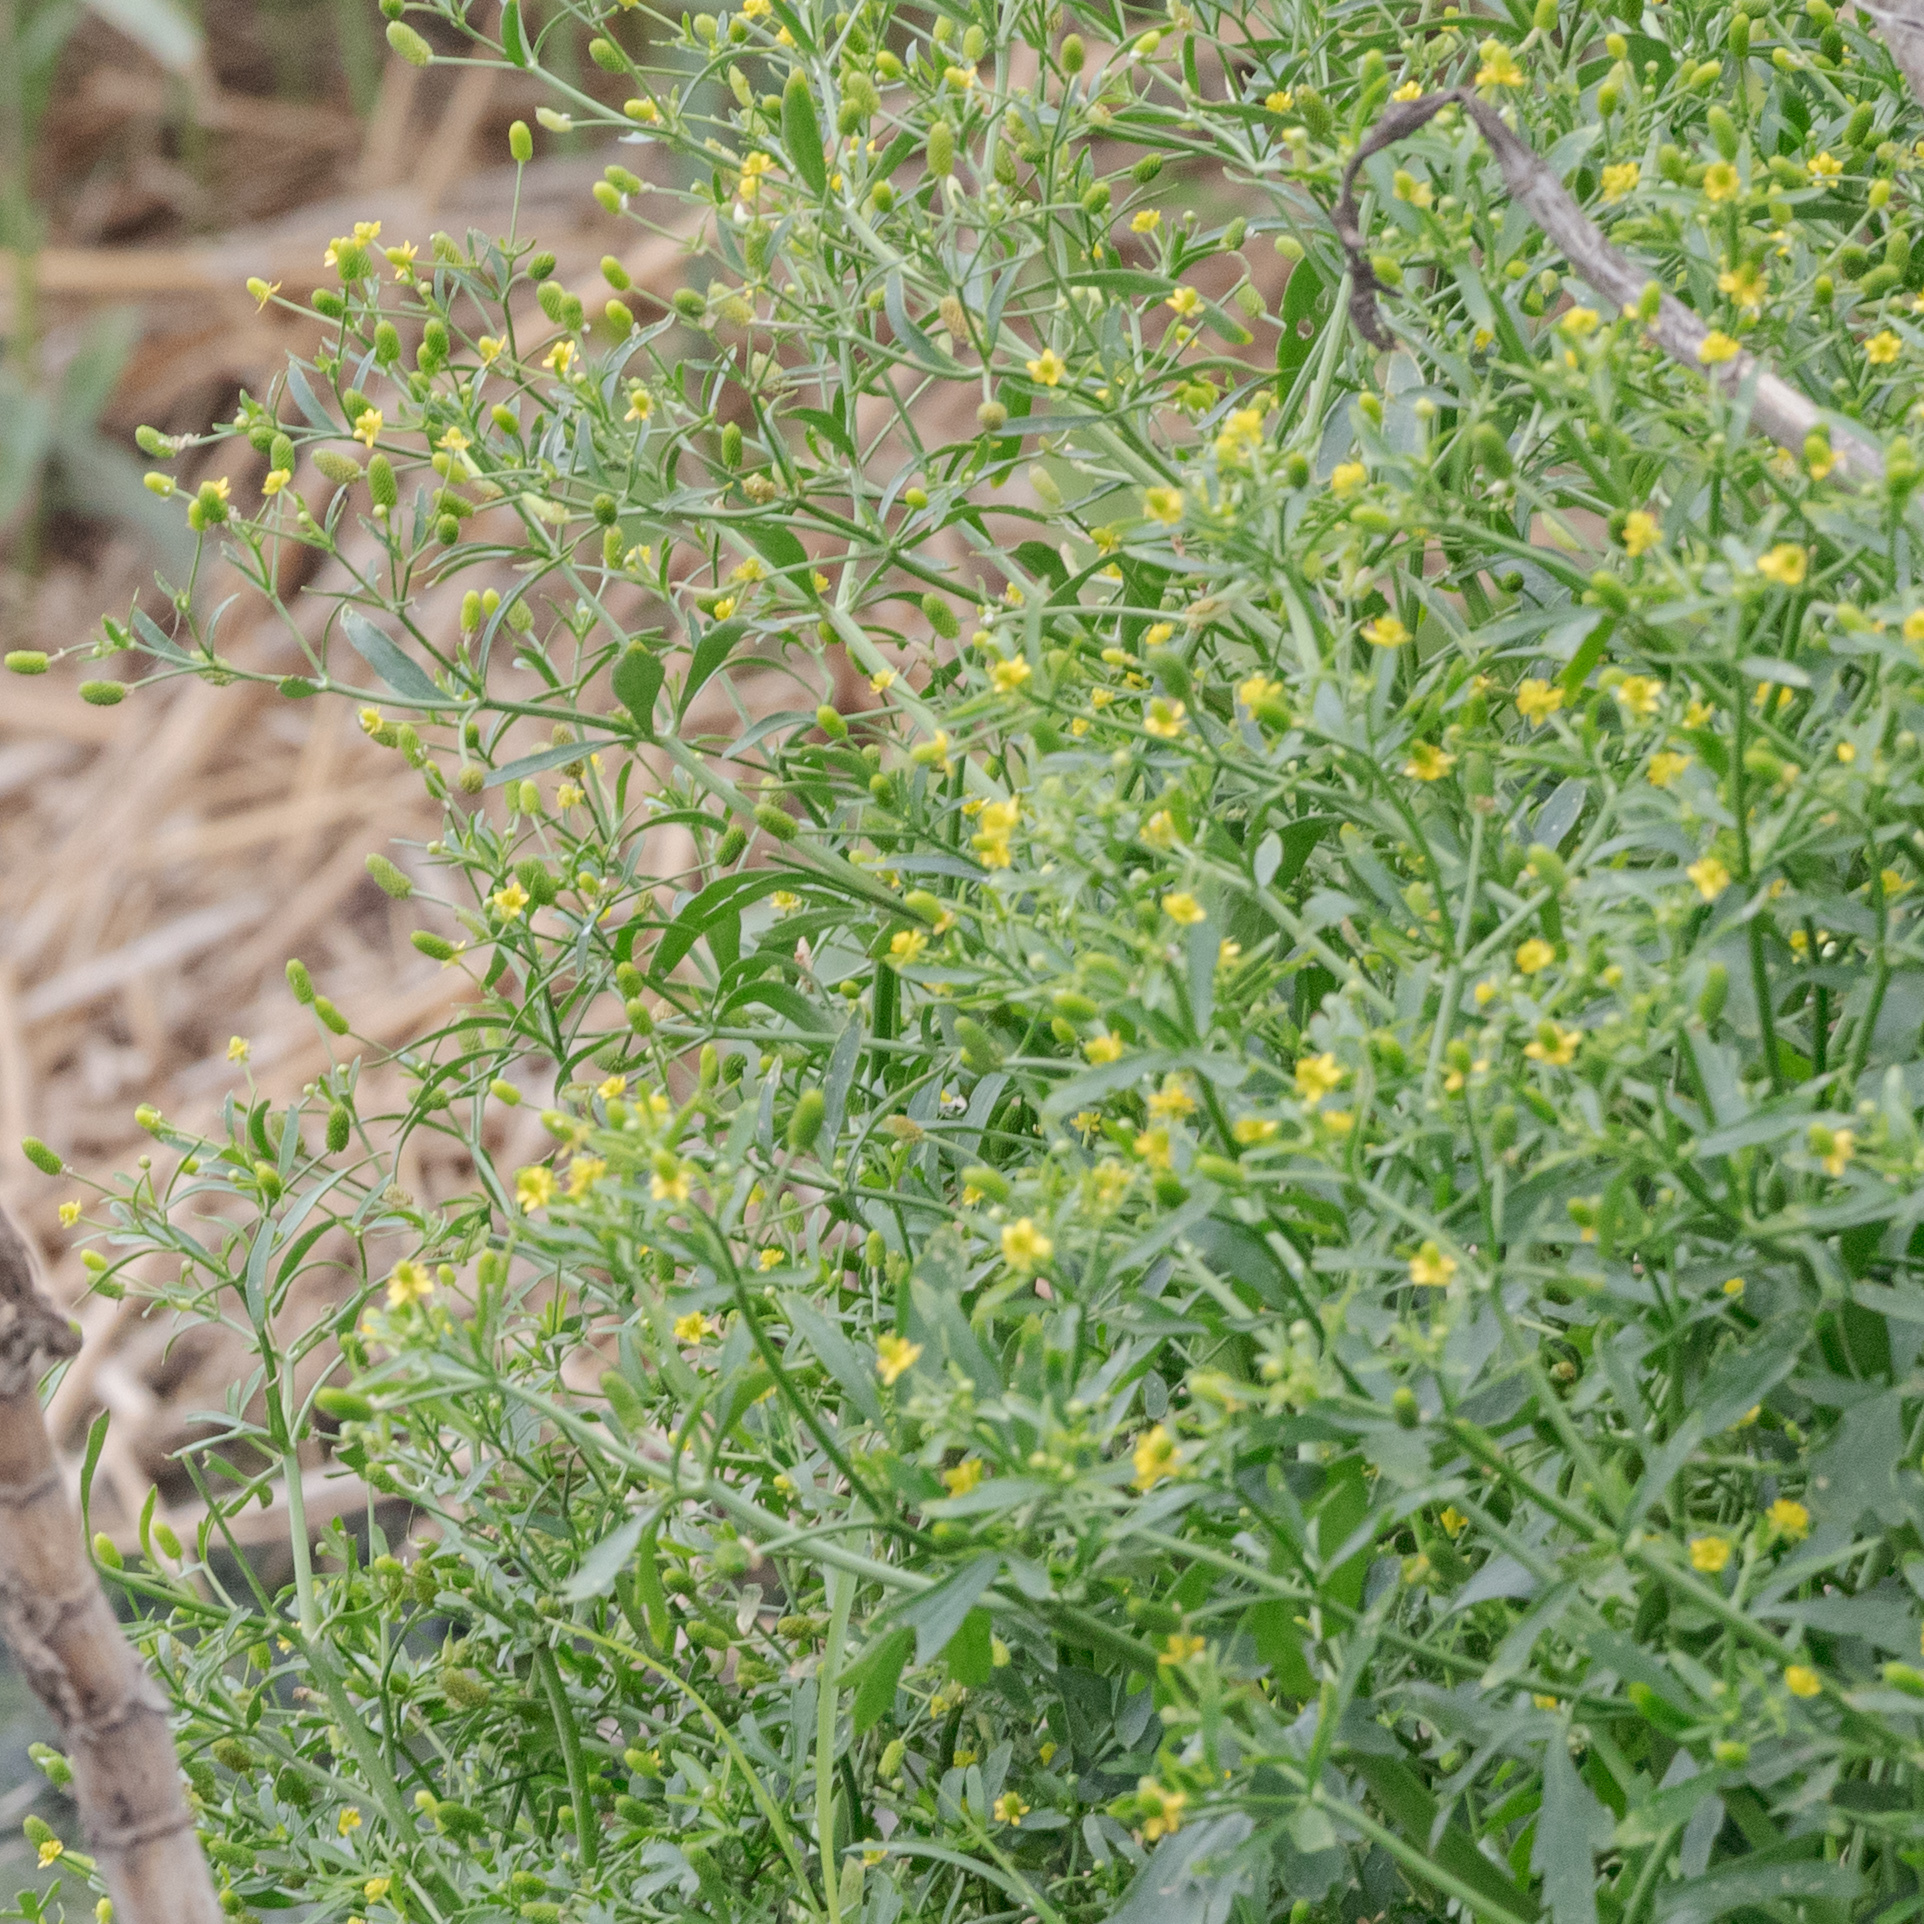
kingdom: Plantae
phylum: Tracheophyta
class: Magnoliopsida
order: Ranunculales
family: Ranunculaceae
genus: Ranunculus
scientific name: Ranunculus sceleratus
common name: Celery-leaved buttercup
